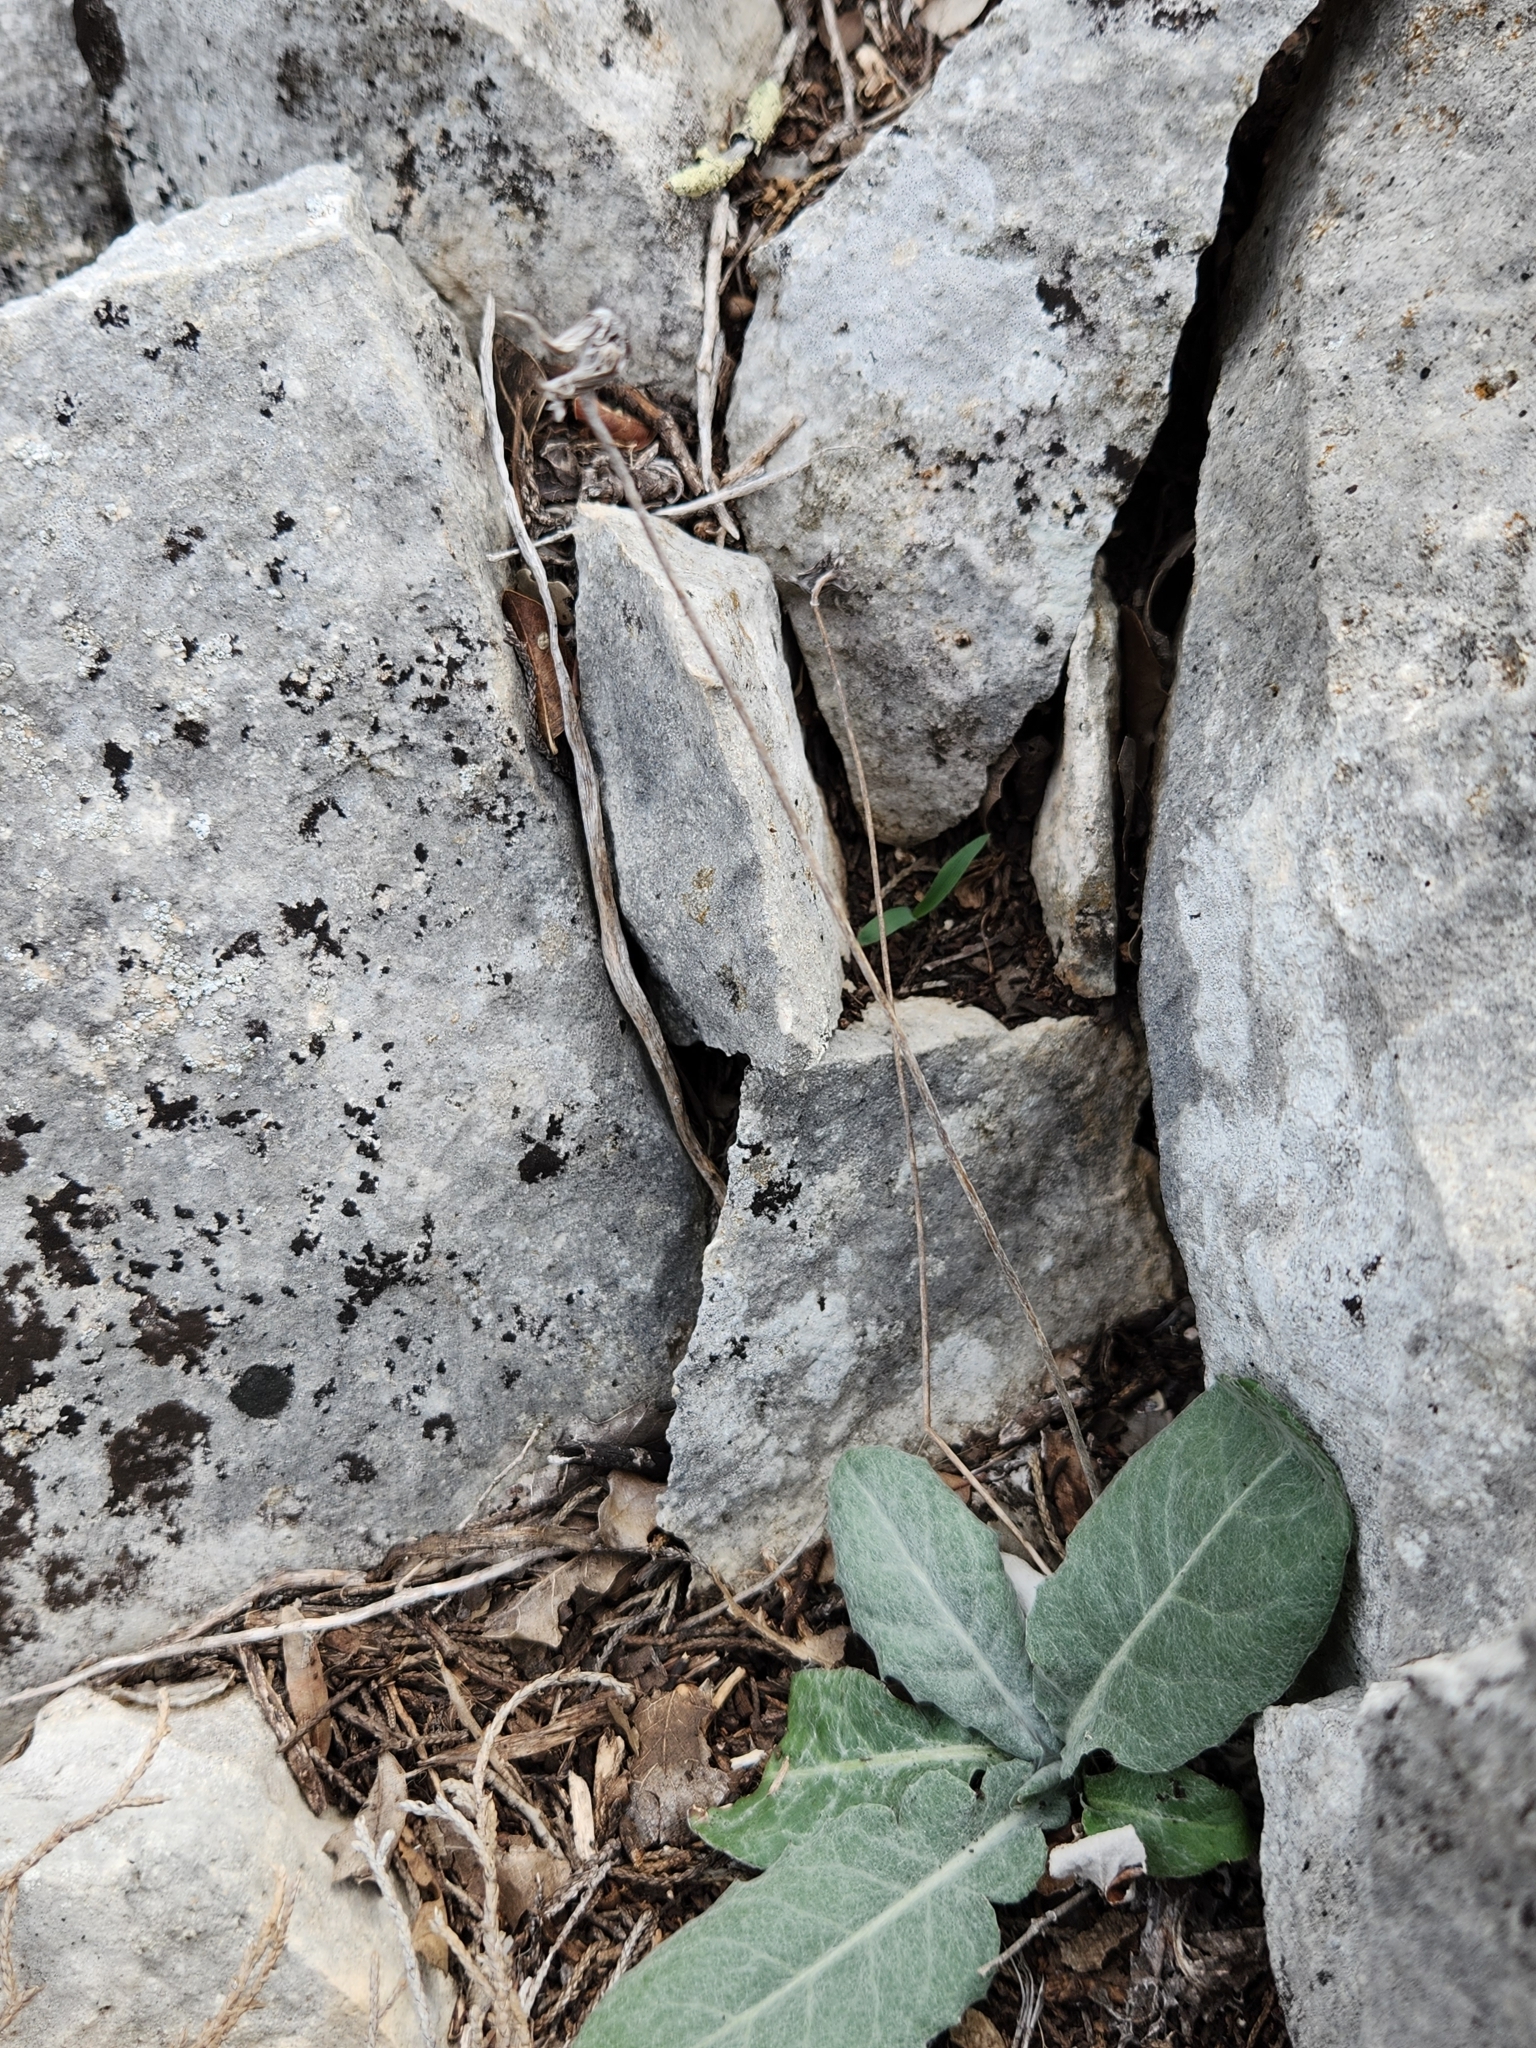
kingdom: Plantae
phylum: Tracheophyta
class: Magnoliopsida
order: Asterales
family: Asteraceae
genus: Chaptalia
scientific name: Chaptalia texana
